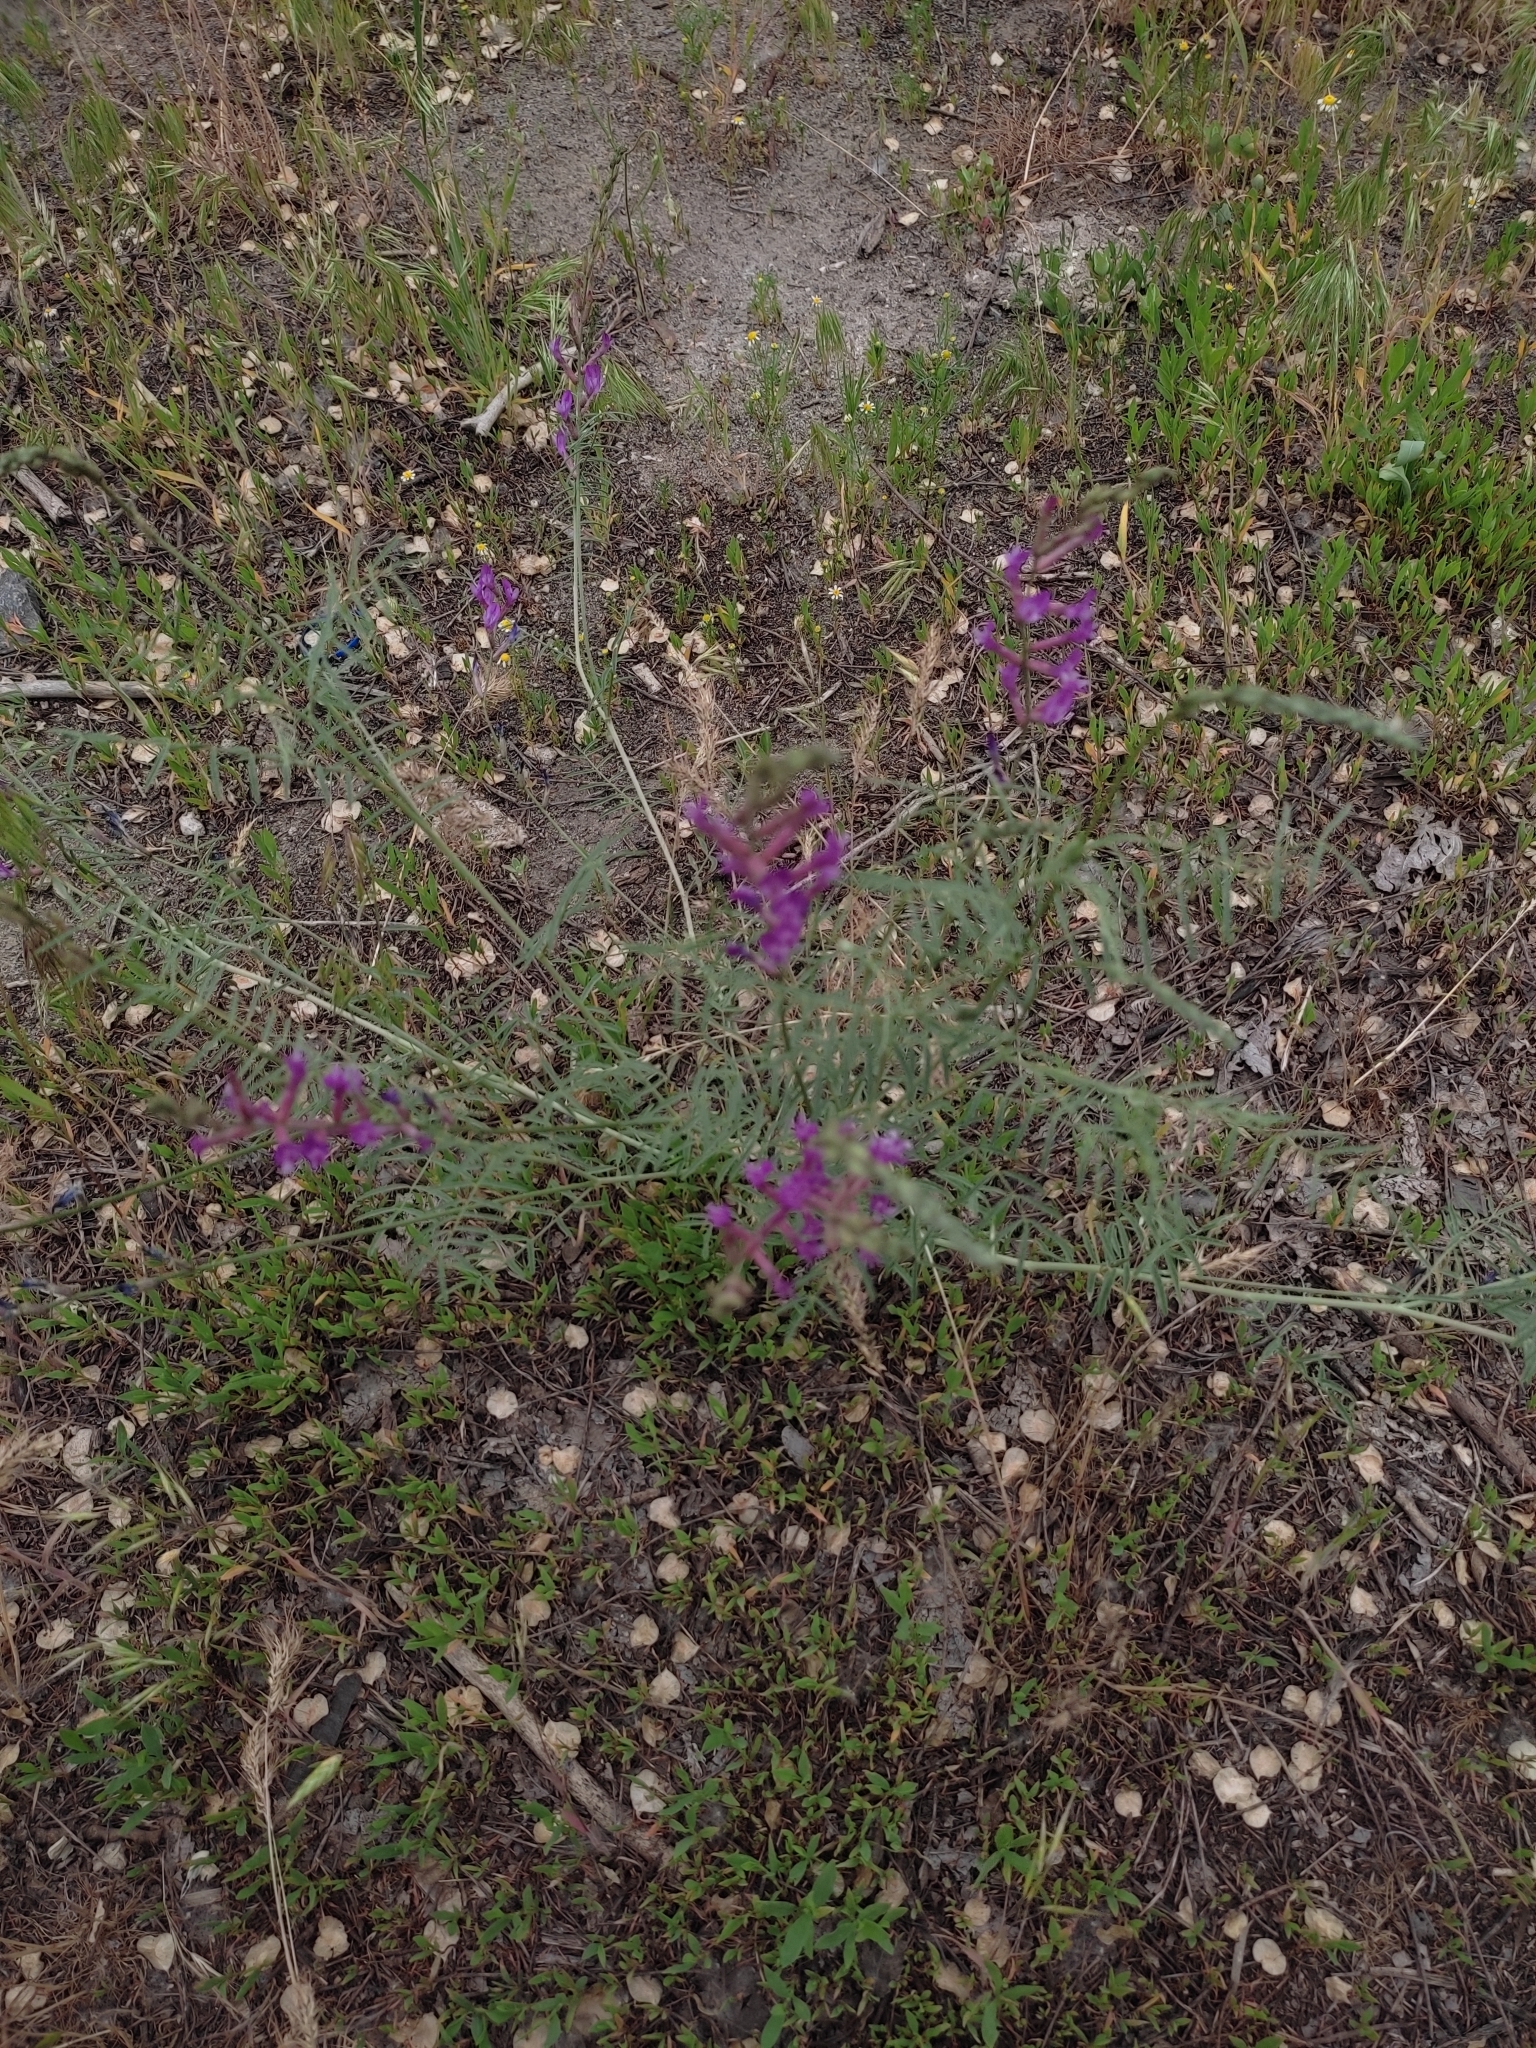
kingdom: Plantae
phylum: Tracheophyta
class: Magnoliopsida
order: Fabales
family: Fabaceae
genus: Astragalus
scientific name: Astragalus varius
